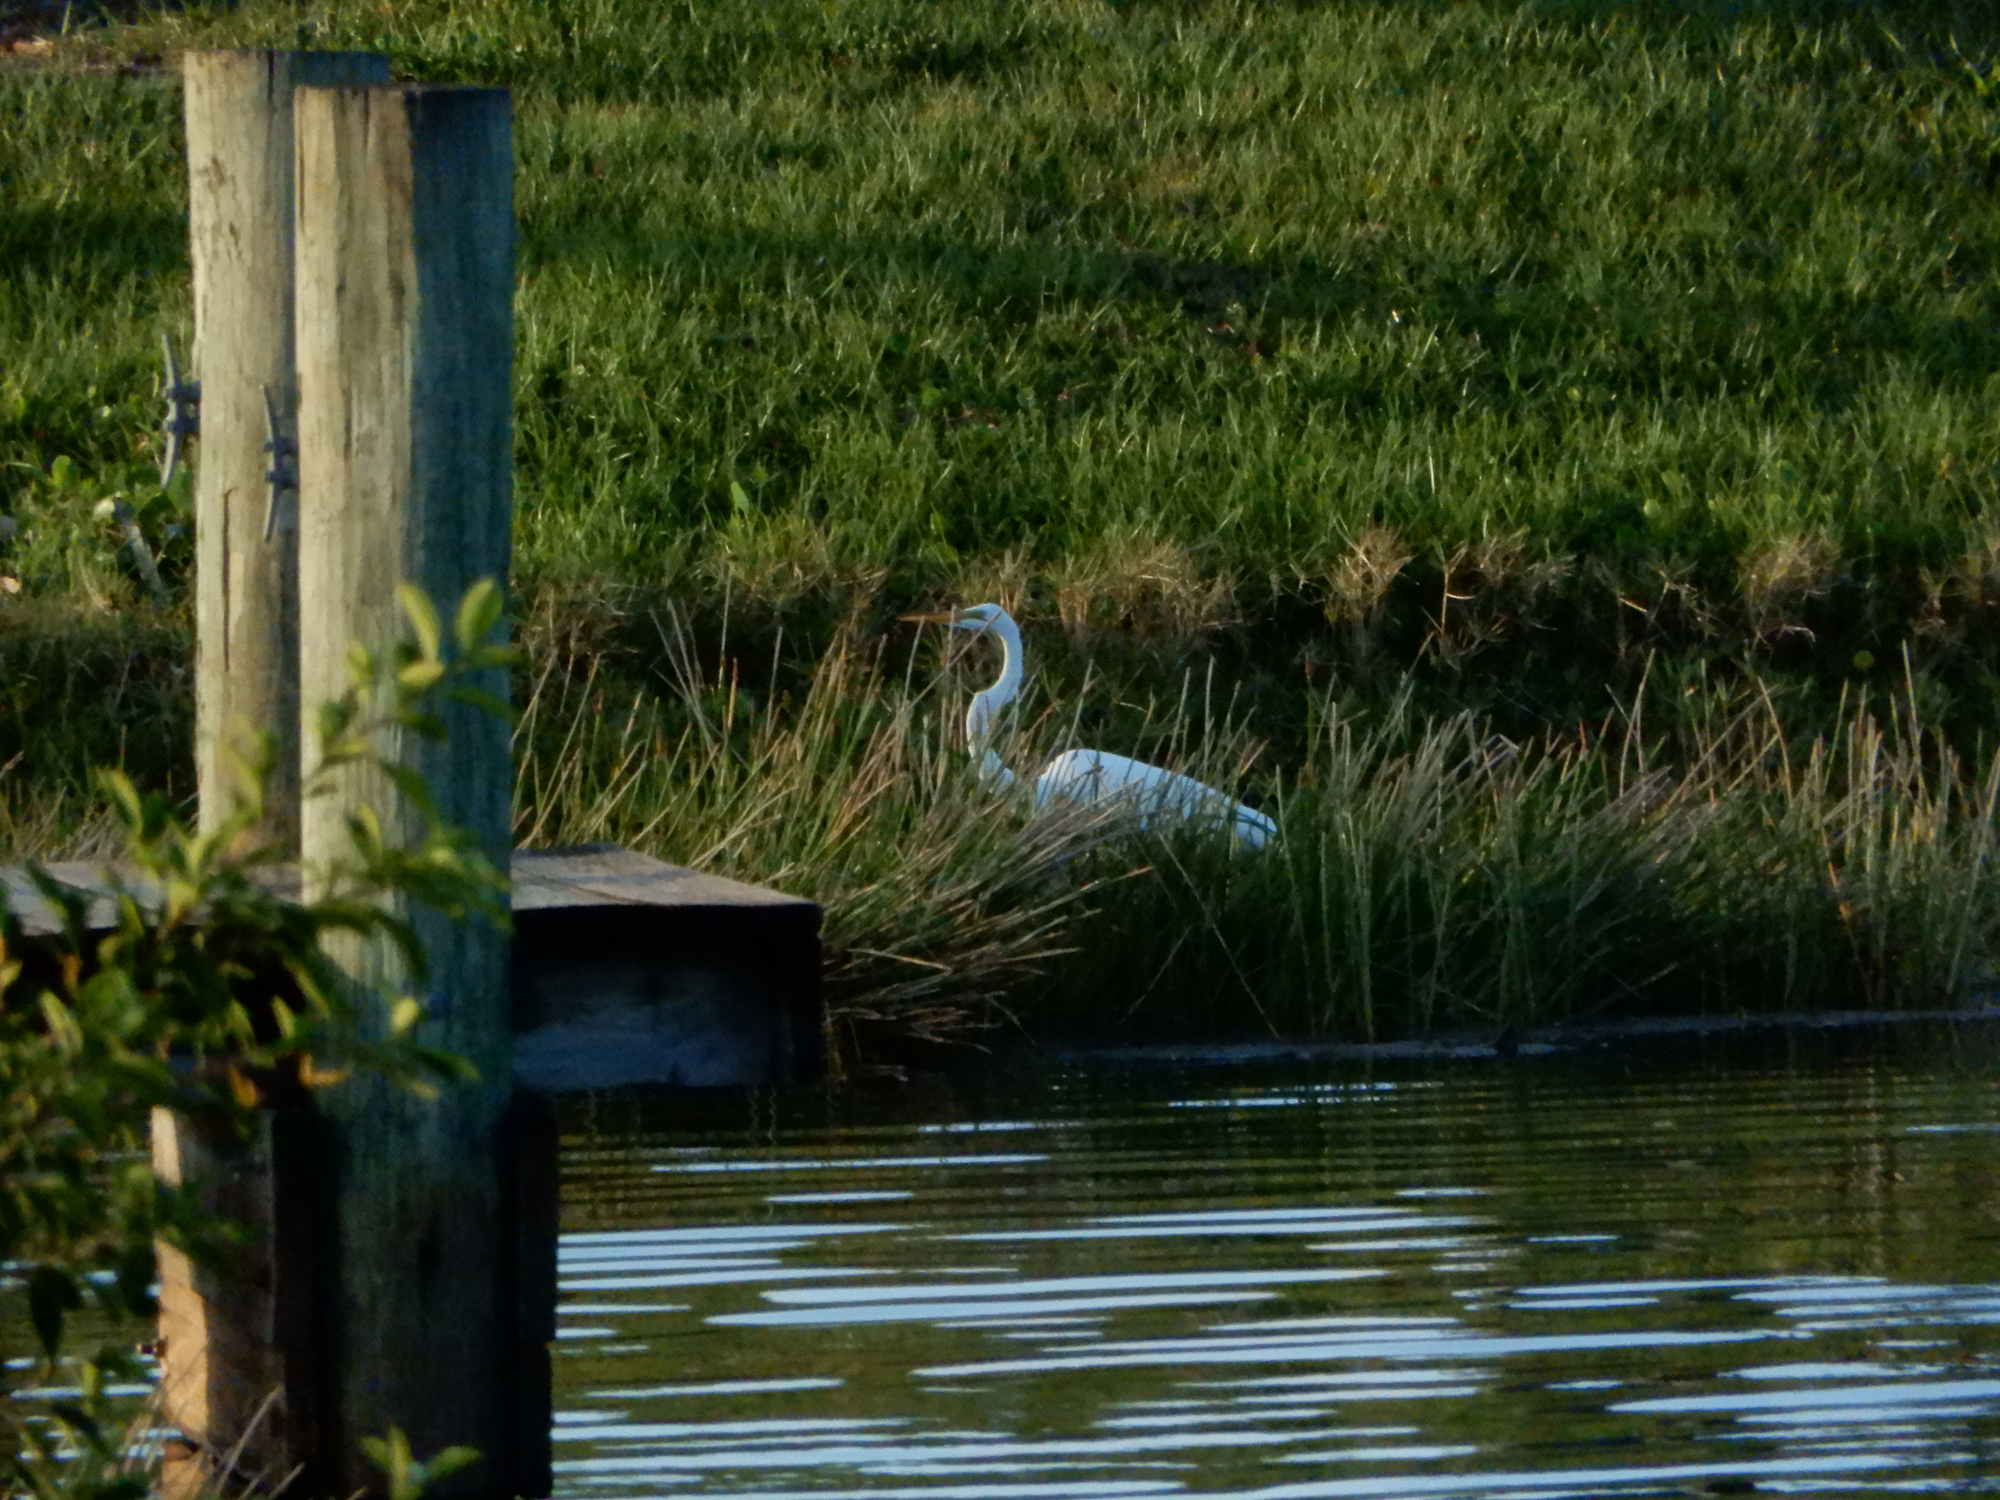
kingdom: Animalia
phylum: Chordata
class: Aves
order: Pelecaniformes
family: Ardeidae
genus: Ardea
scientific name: Ardea alba
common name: Great egret
